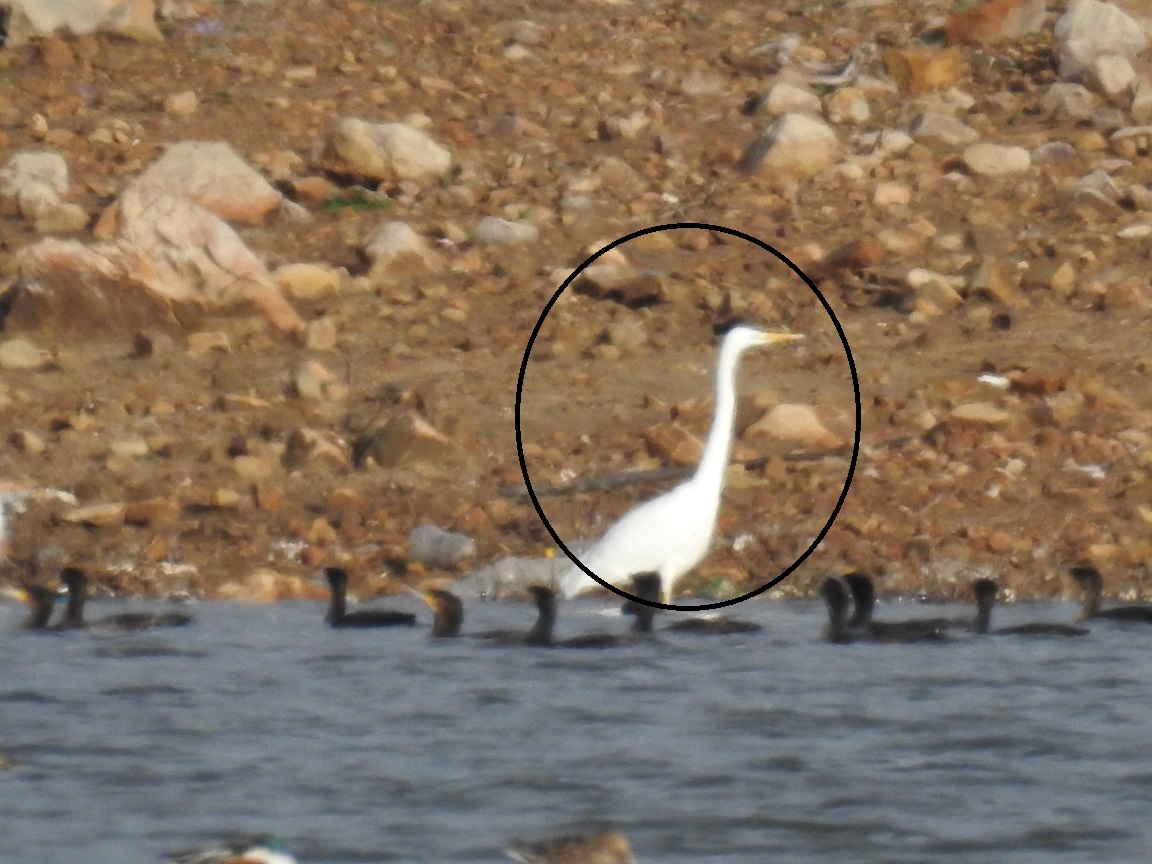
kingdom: Animalia
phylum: Chordata
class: Aves
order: Pelecaniformes
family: Ardeidae
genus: Ardea
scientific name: Ardea alba
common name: Great egret
